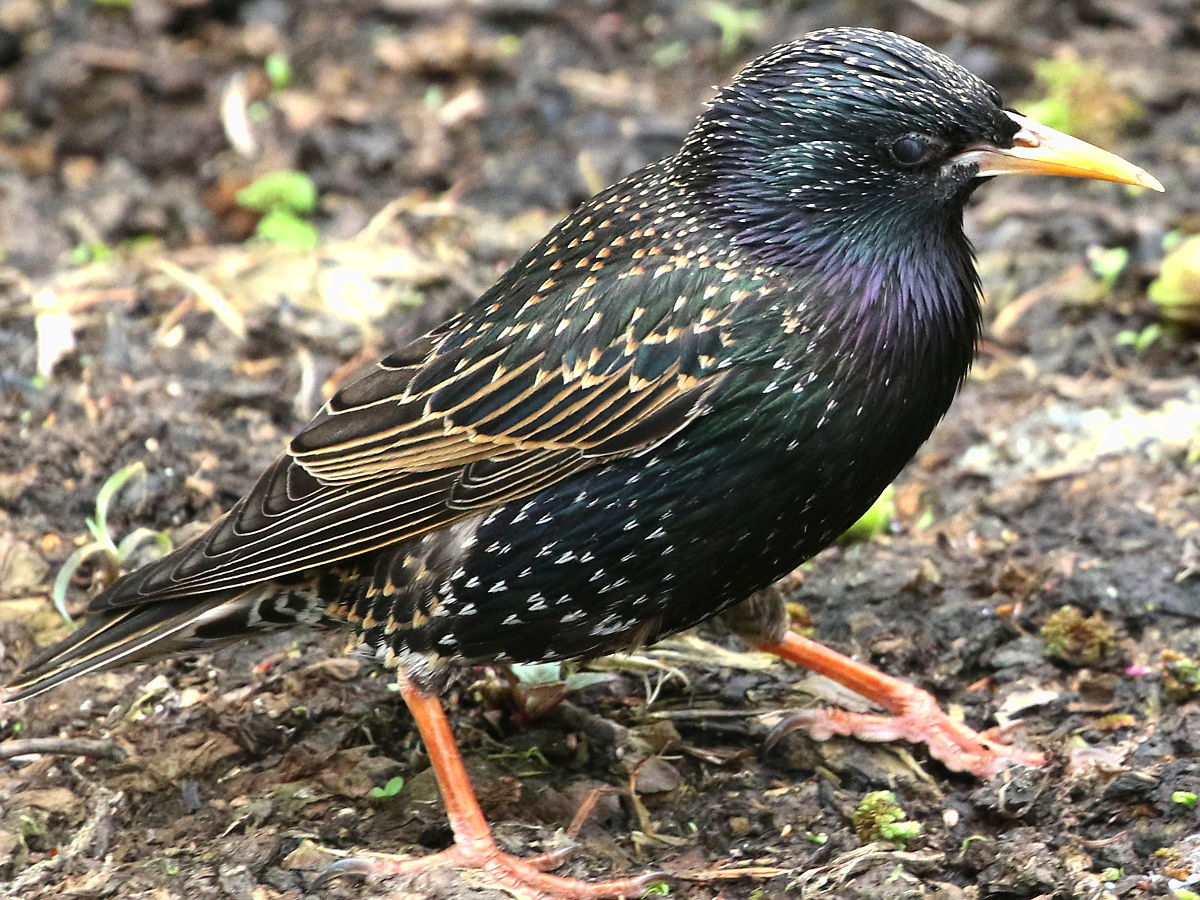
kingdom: Animalia
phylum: Chordata
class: Aves
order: Passeriformes
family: Sturnidae
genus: Sturnus
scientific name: Sturnus vulgaris
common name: Common starling
